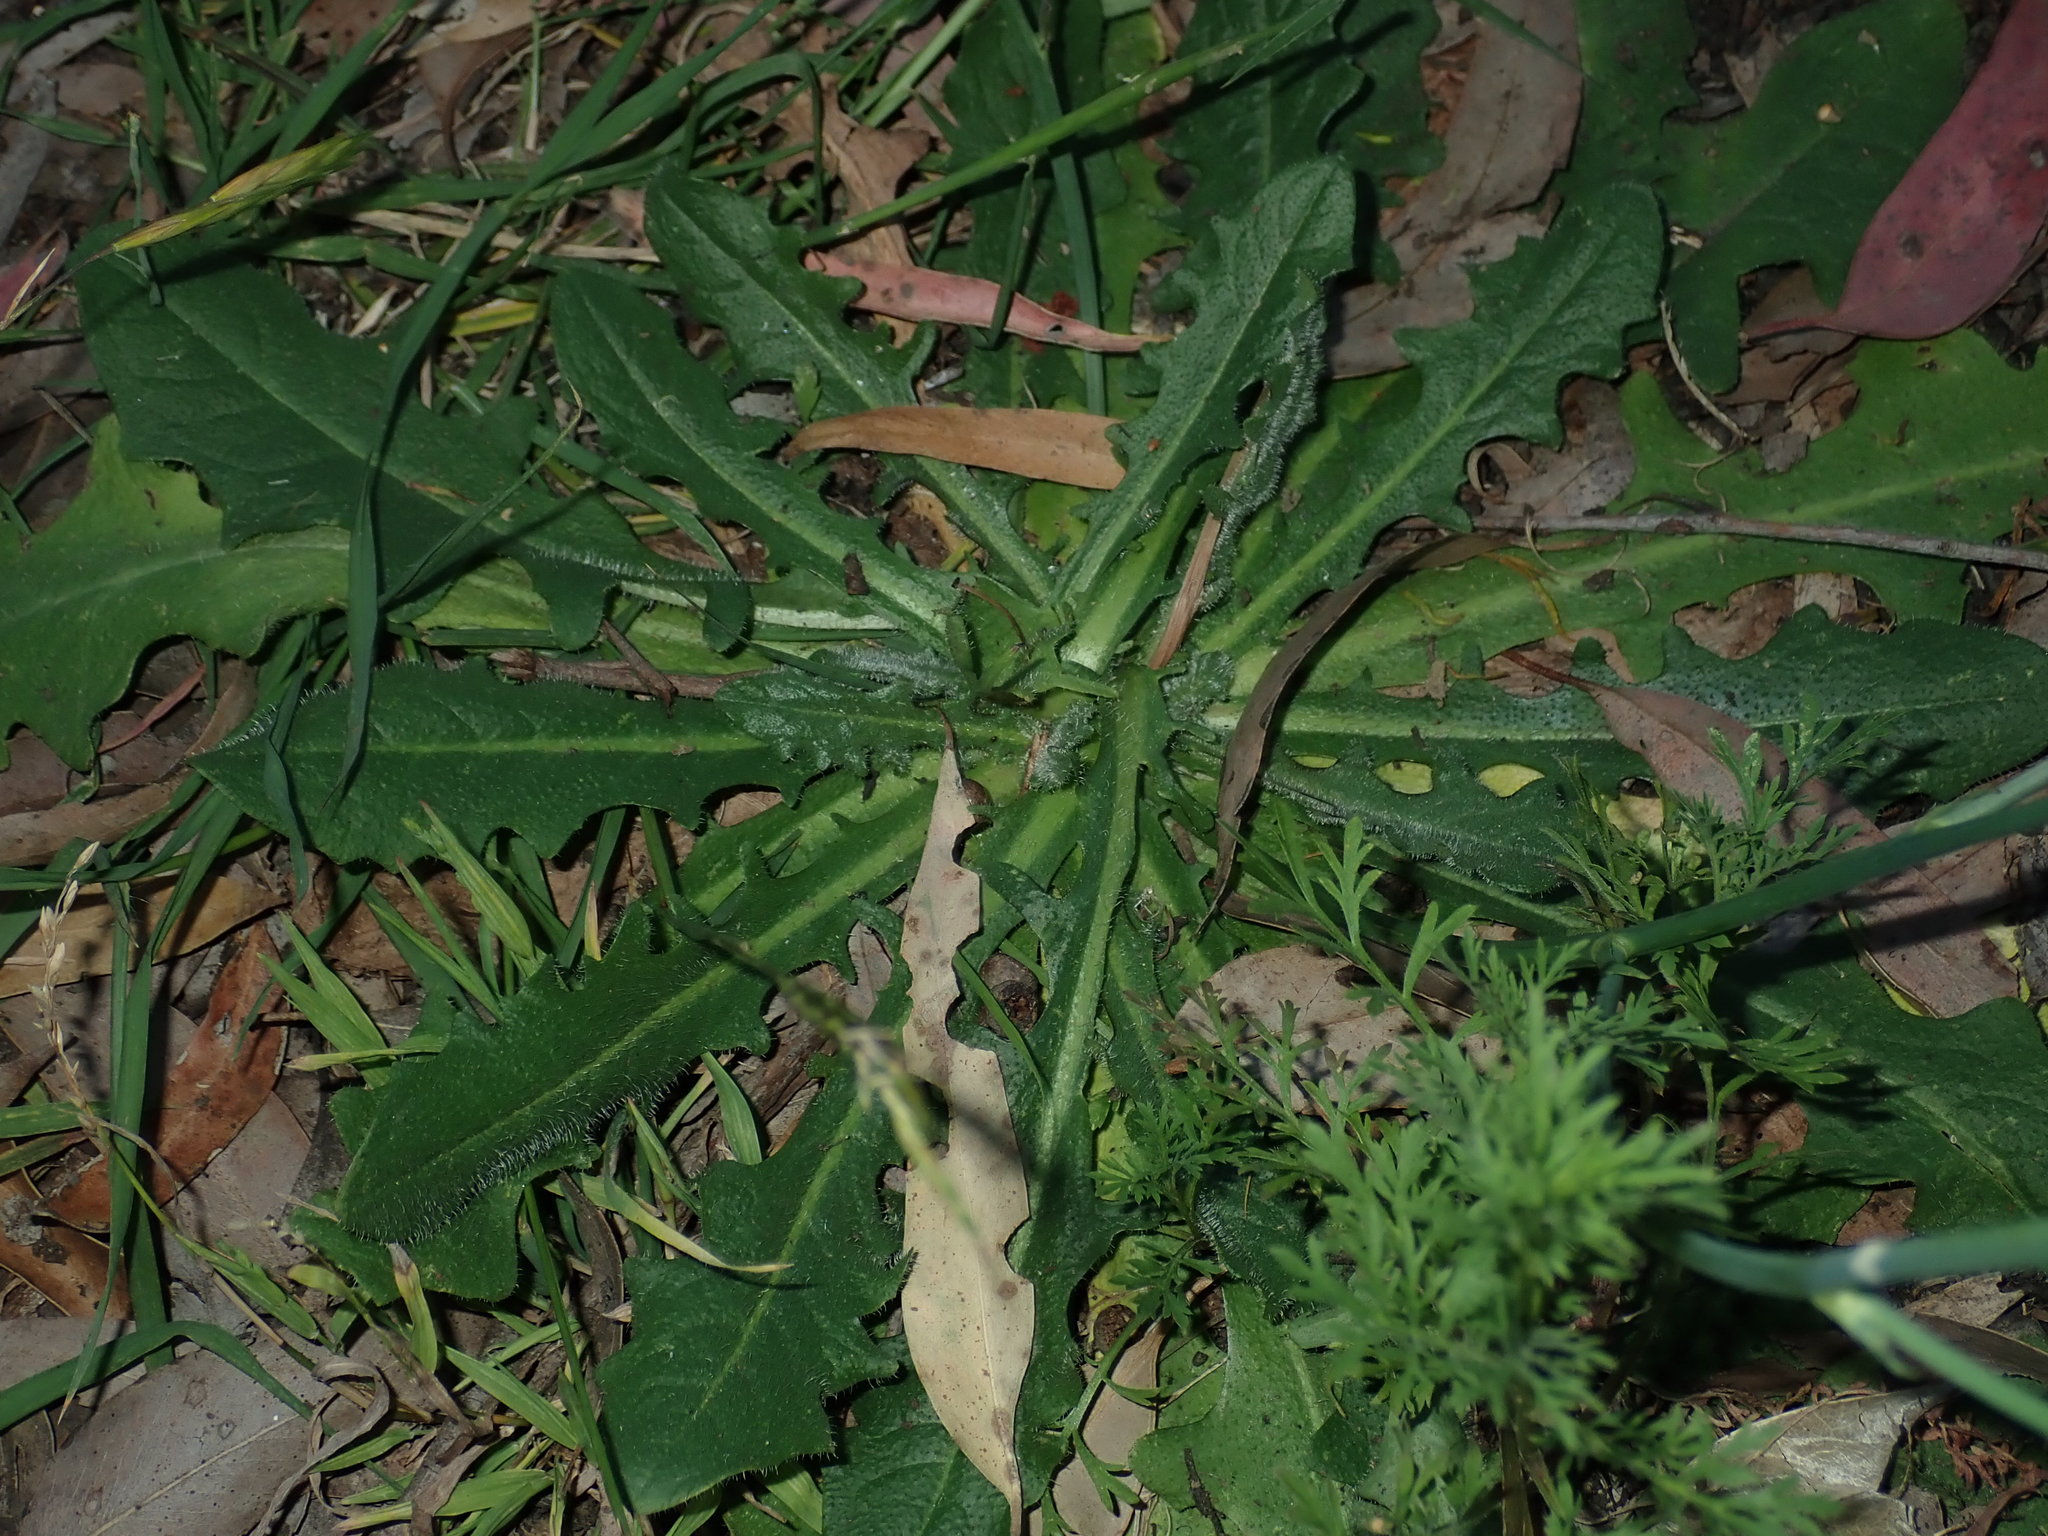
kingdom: Plantae
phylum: Tracheophyta
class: Magnoliopsida
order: Asterales
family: Asteraceae
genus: Hypochaeris
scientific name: Hypochaeris radicata
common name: Flatweed
